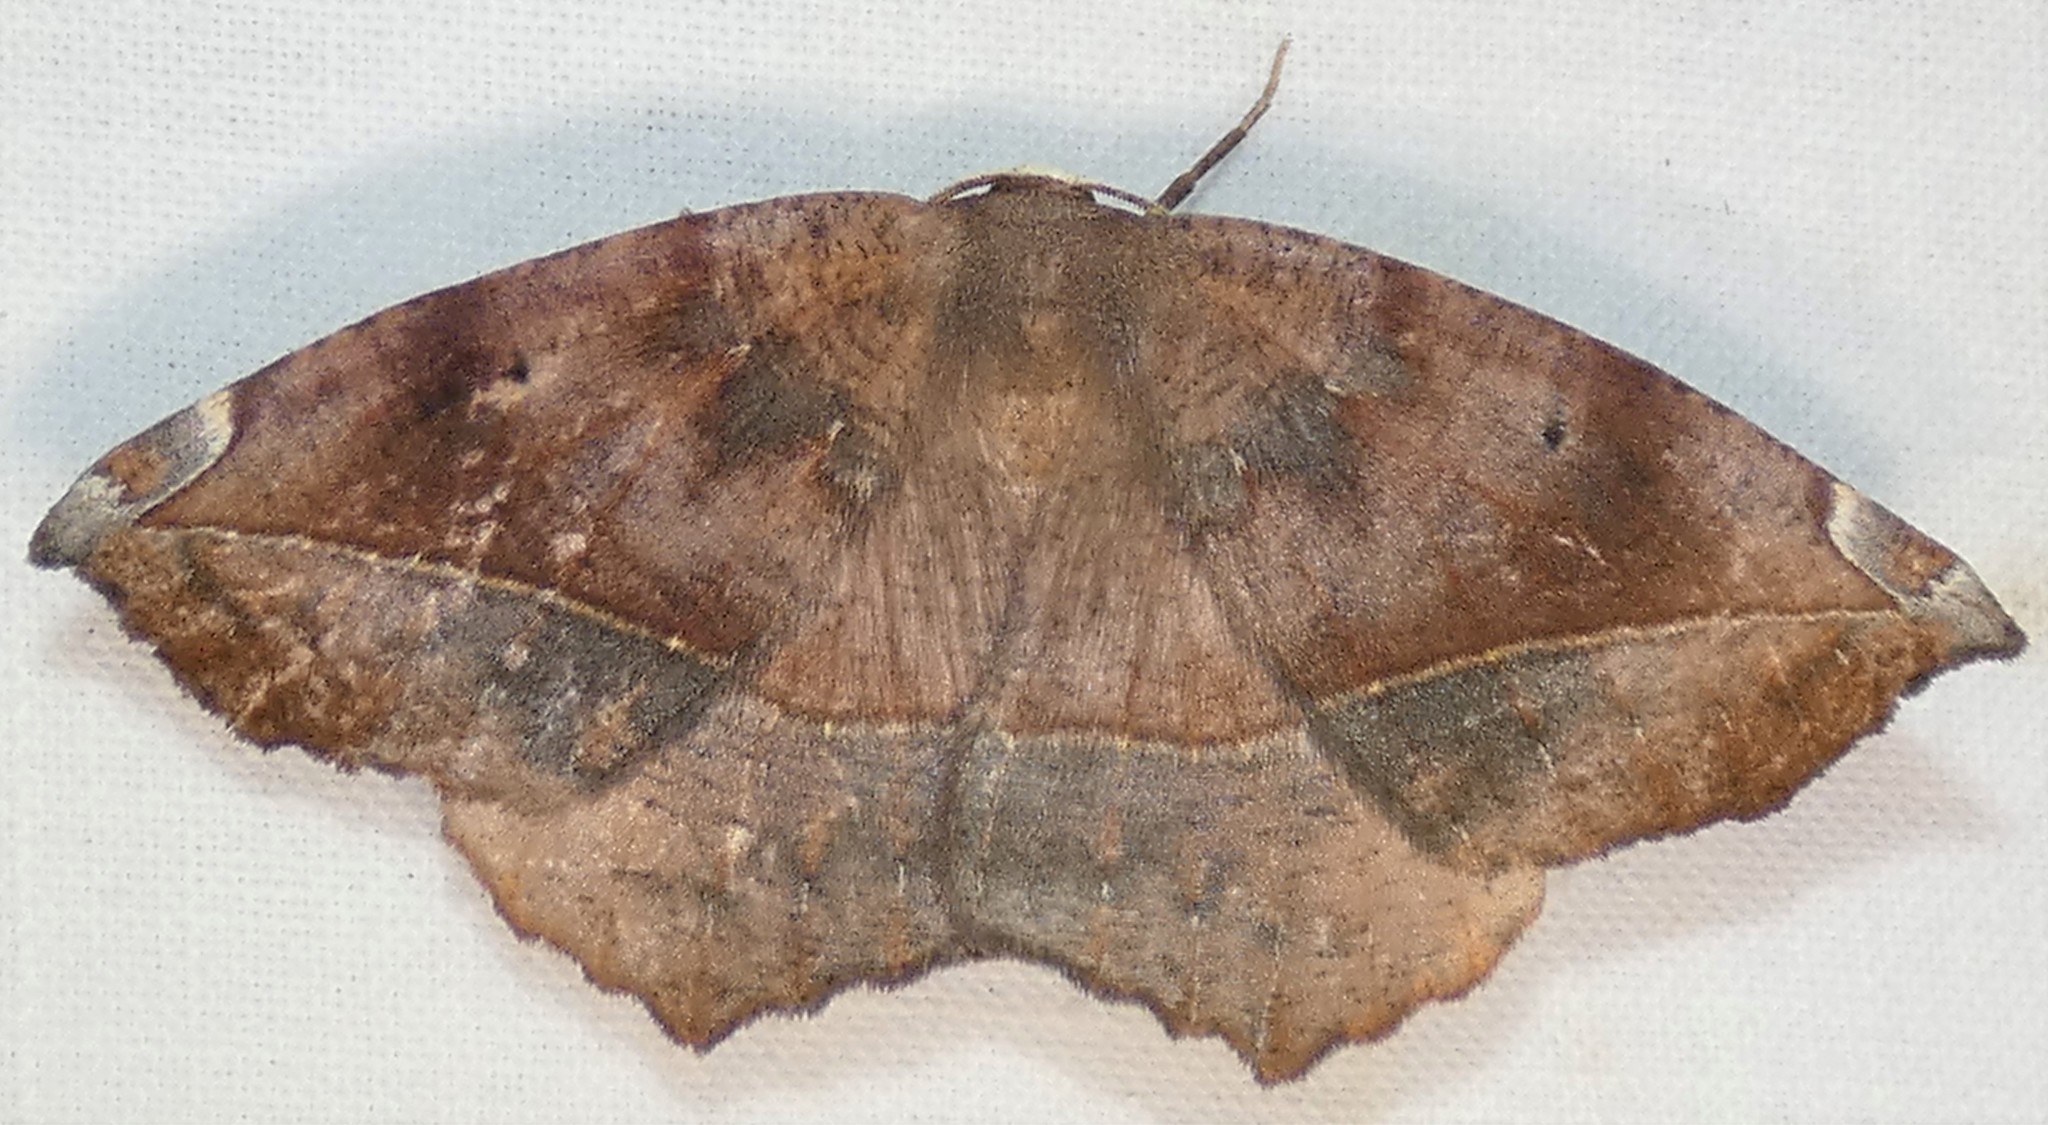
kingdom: Animalia
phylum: Arthropoda
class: Insecta
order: Lepidoptera
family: Geometridae
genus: Eutrapela
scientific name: Eutrapela clemataria
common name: Curved-toothed geometer
